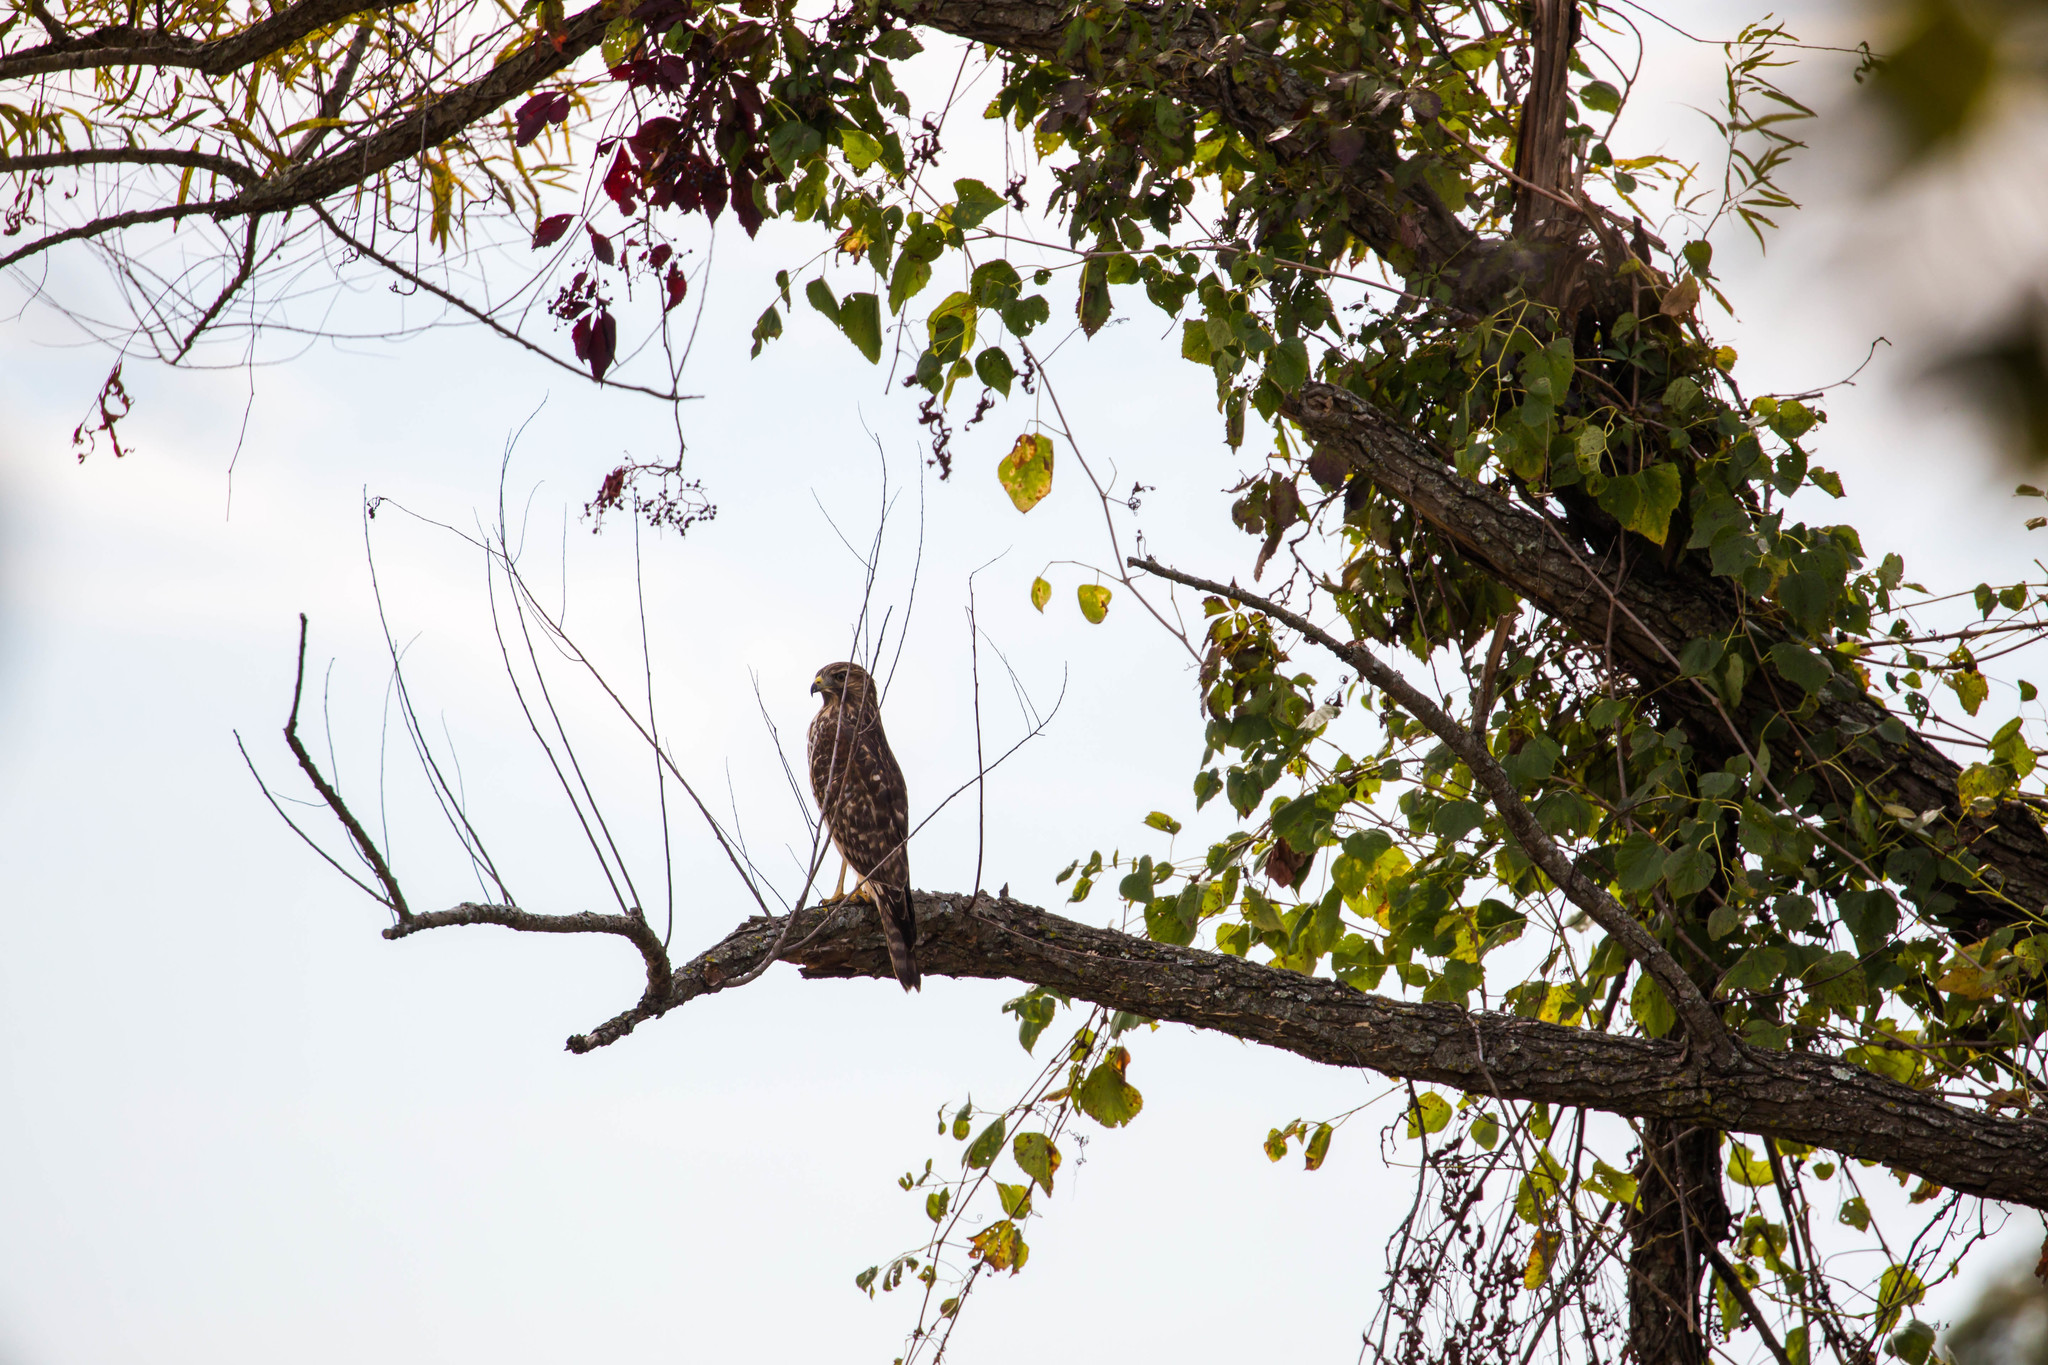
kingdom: Animalia
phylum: Chordata
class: Aves
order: Accipitriformes
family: Accipitridae
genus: Buteo
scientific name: Buteo lineatus
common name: Red-shouldered hawk
